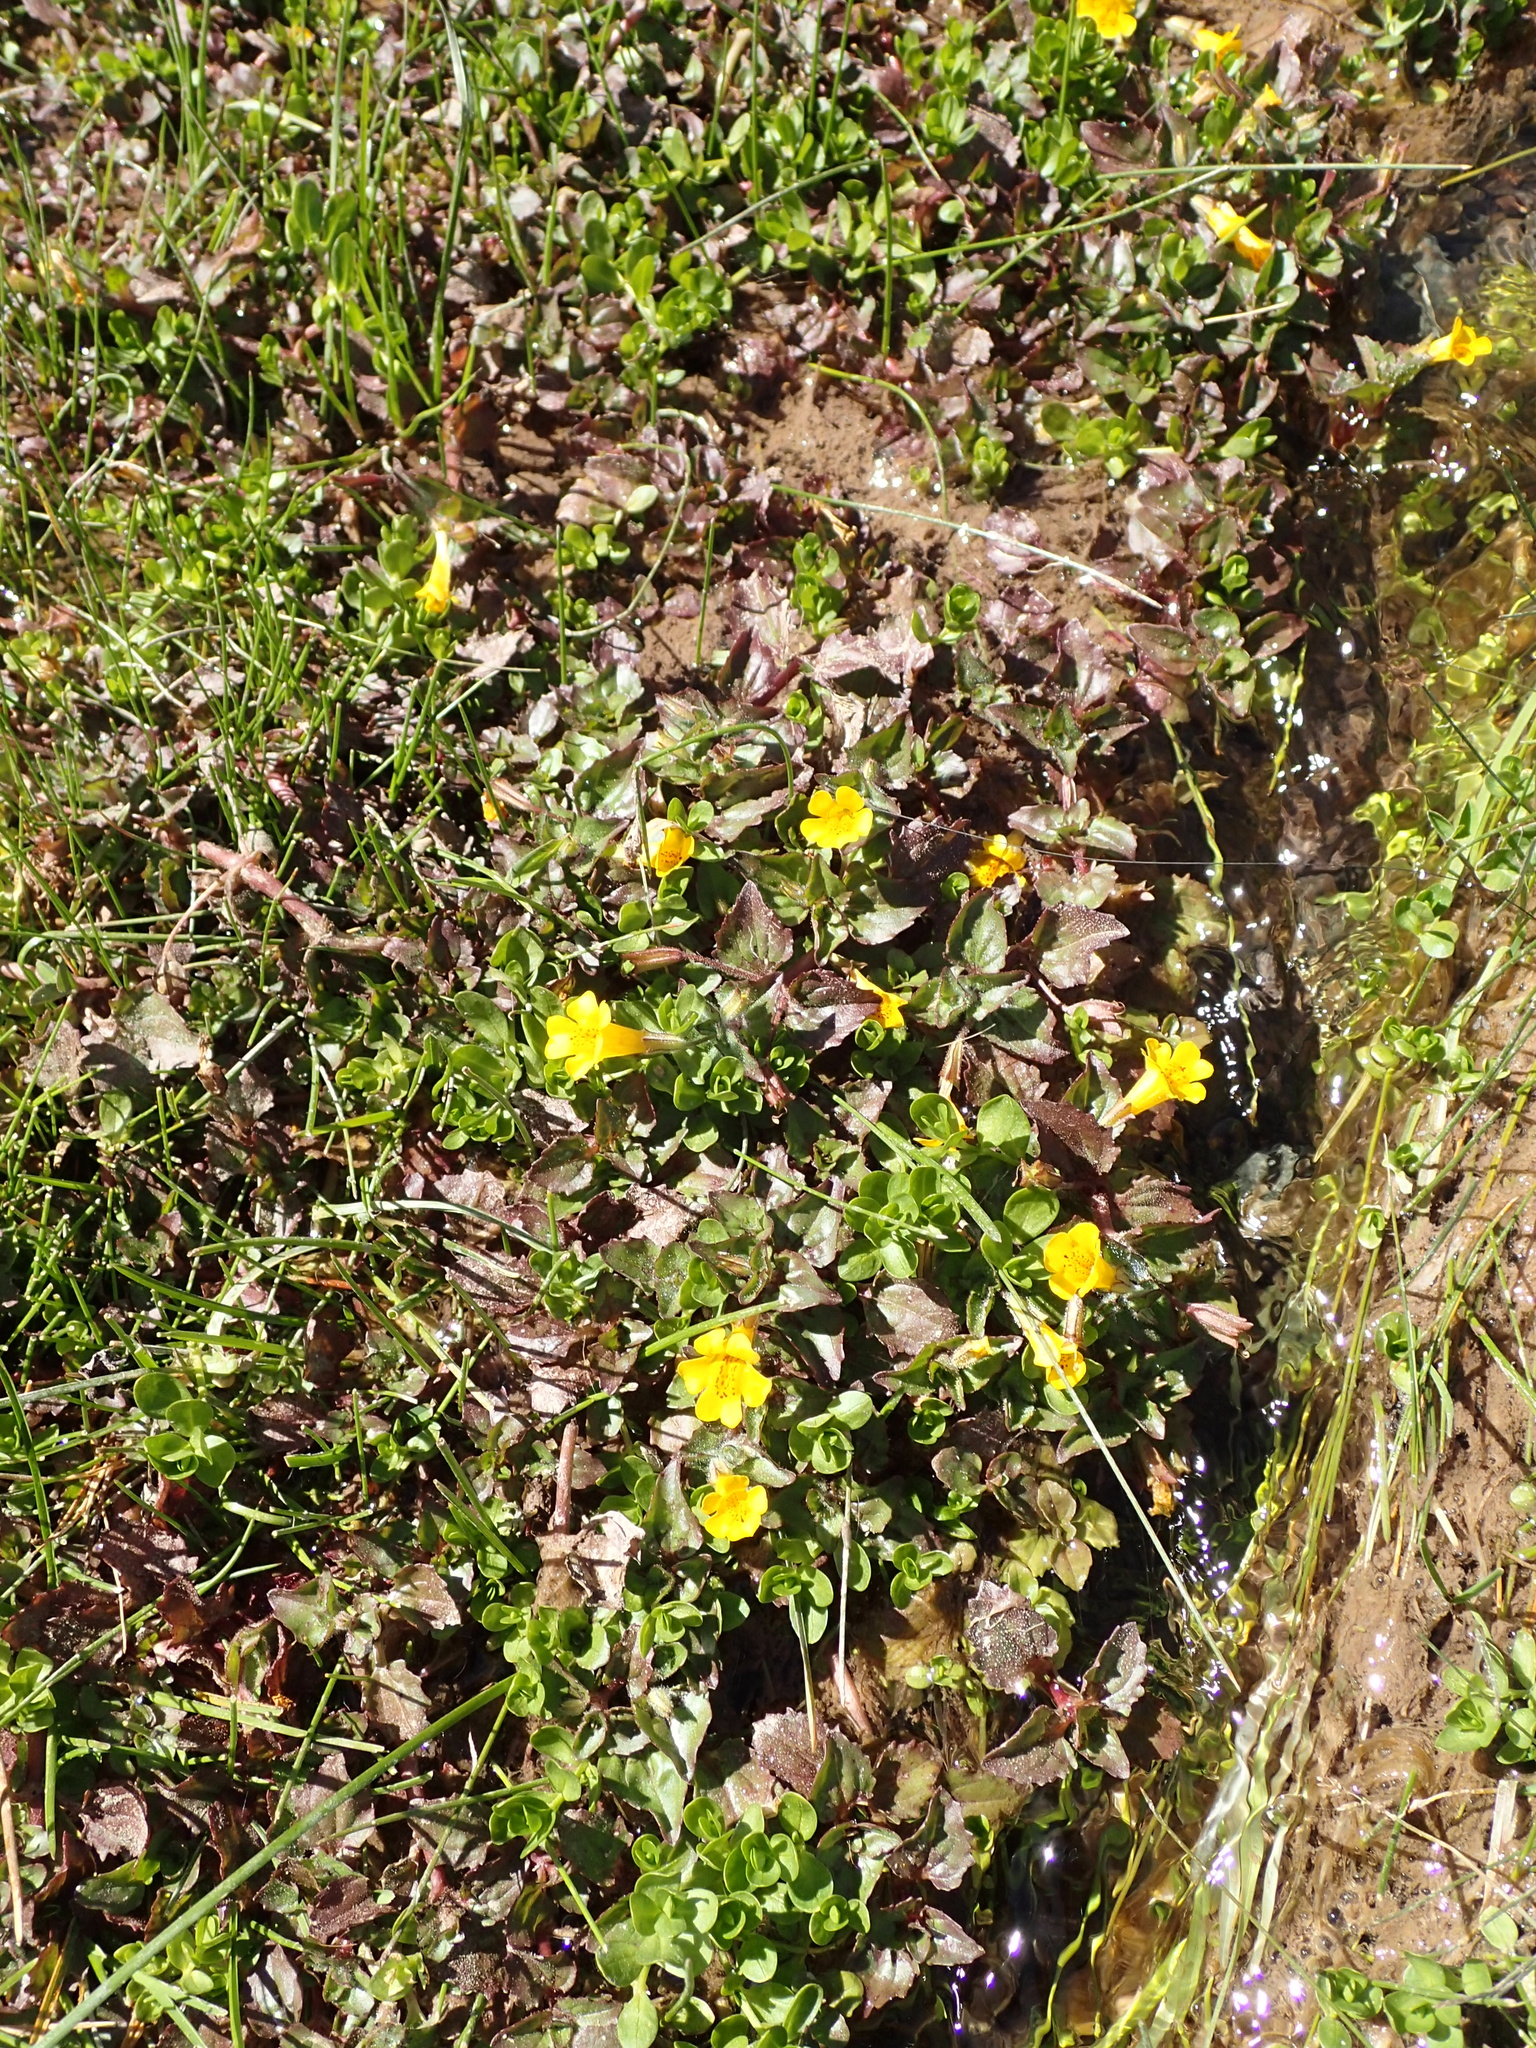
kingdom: Plantae
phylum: Tracheophyta
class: Magnoliopsida
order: Lamiales
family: Phrymaceae
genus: Erythranthe
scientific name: Erythranthe andicola
